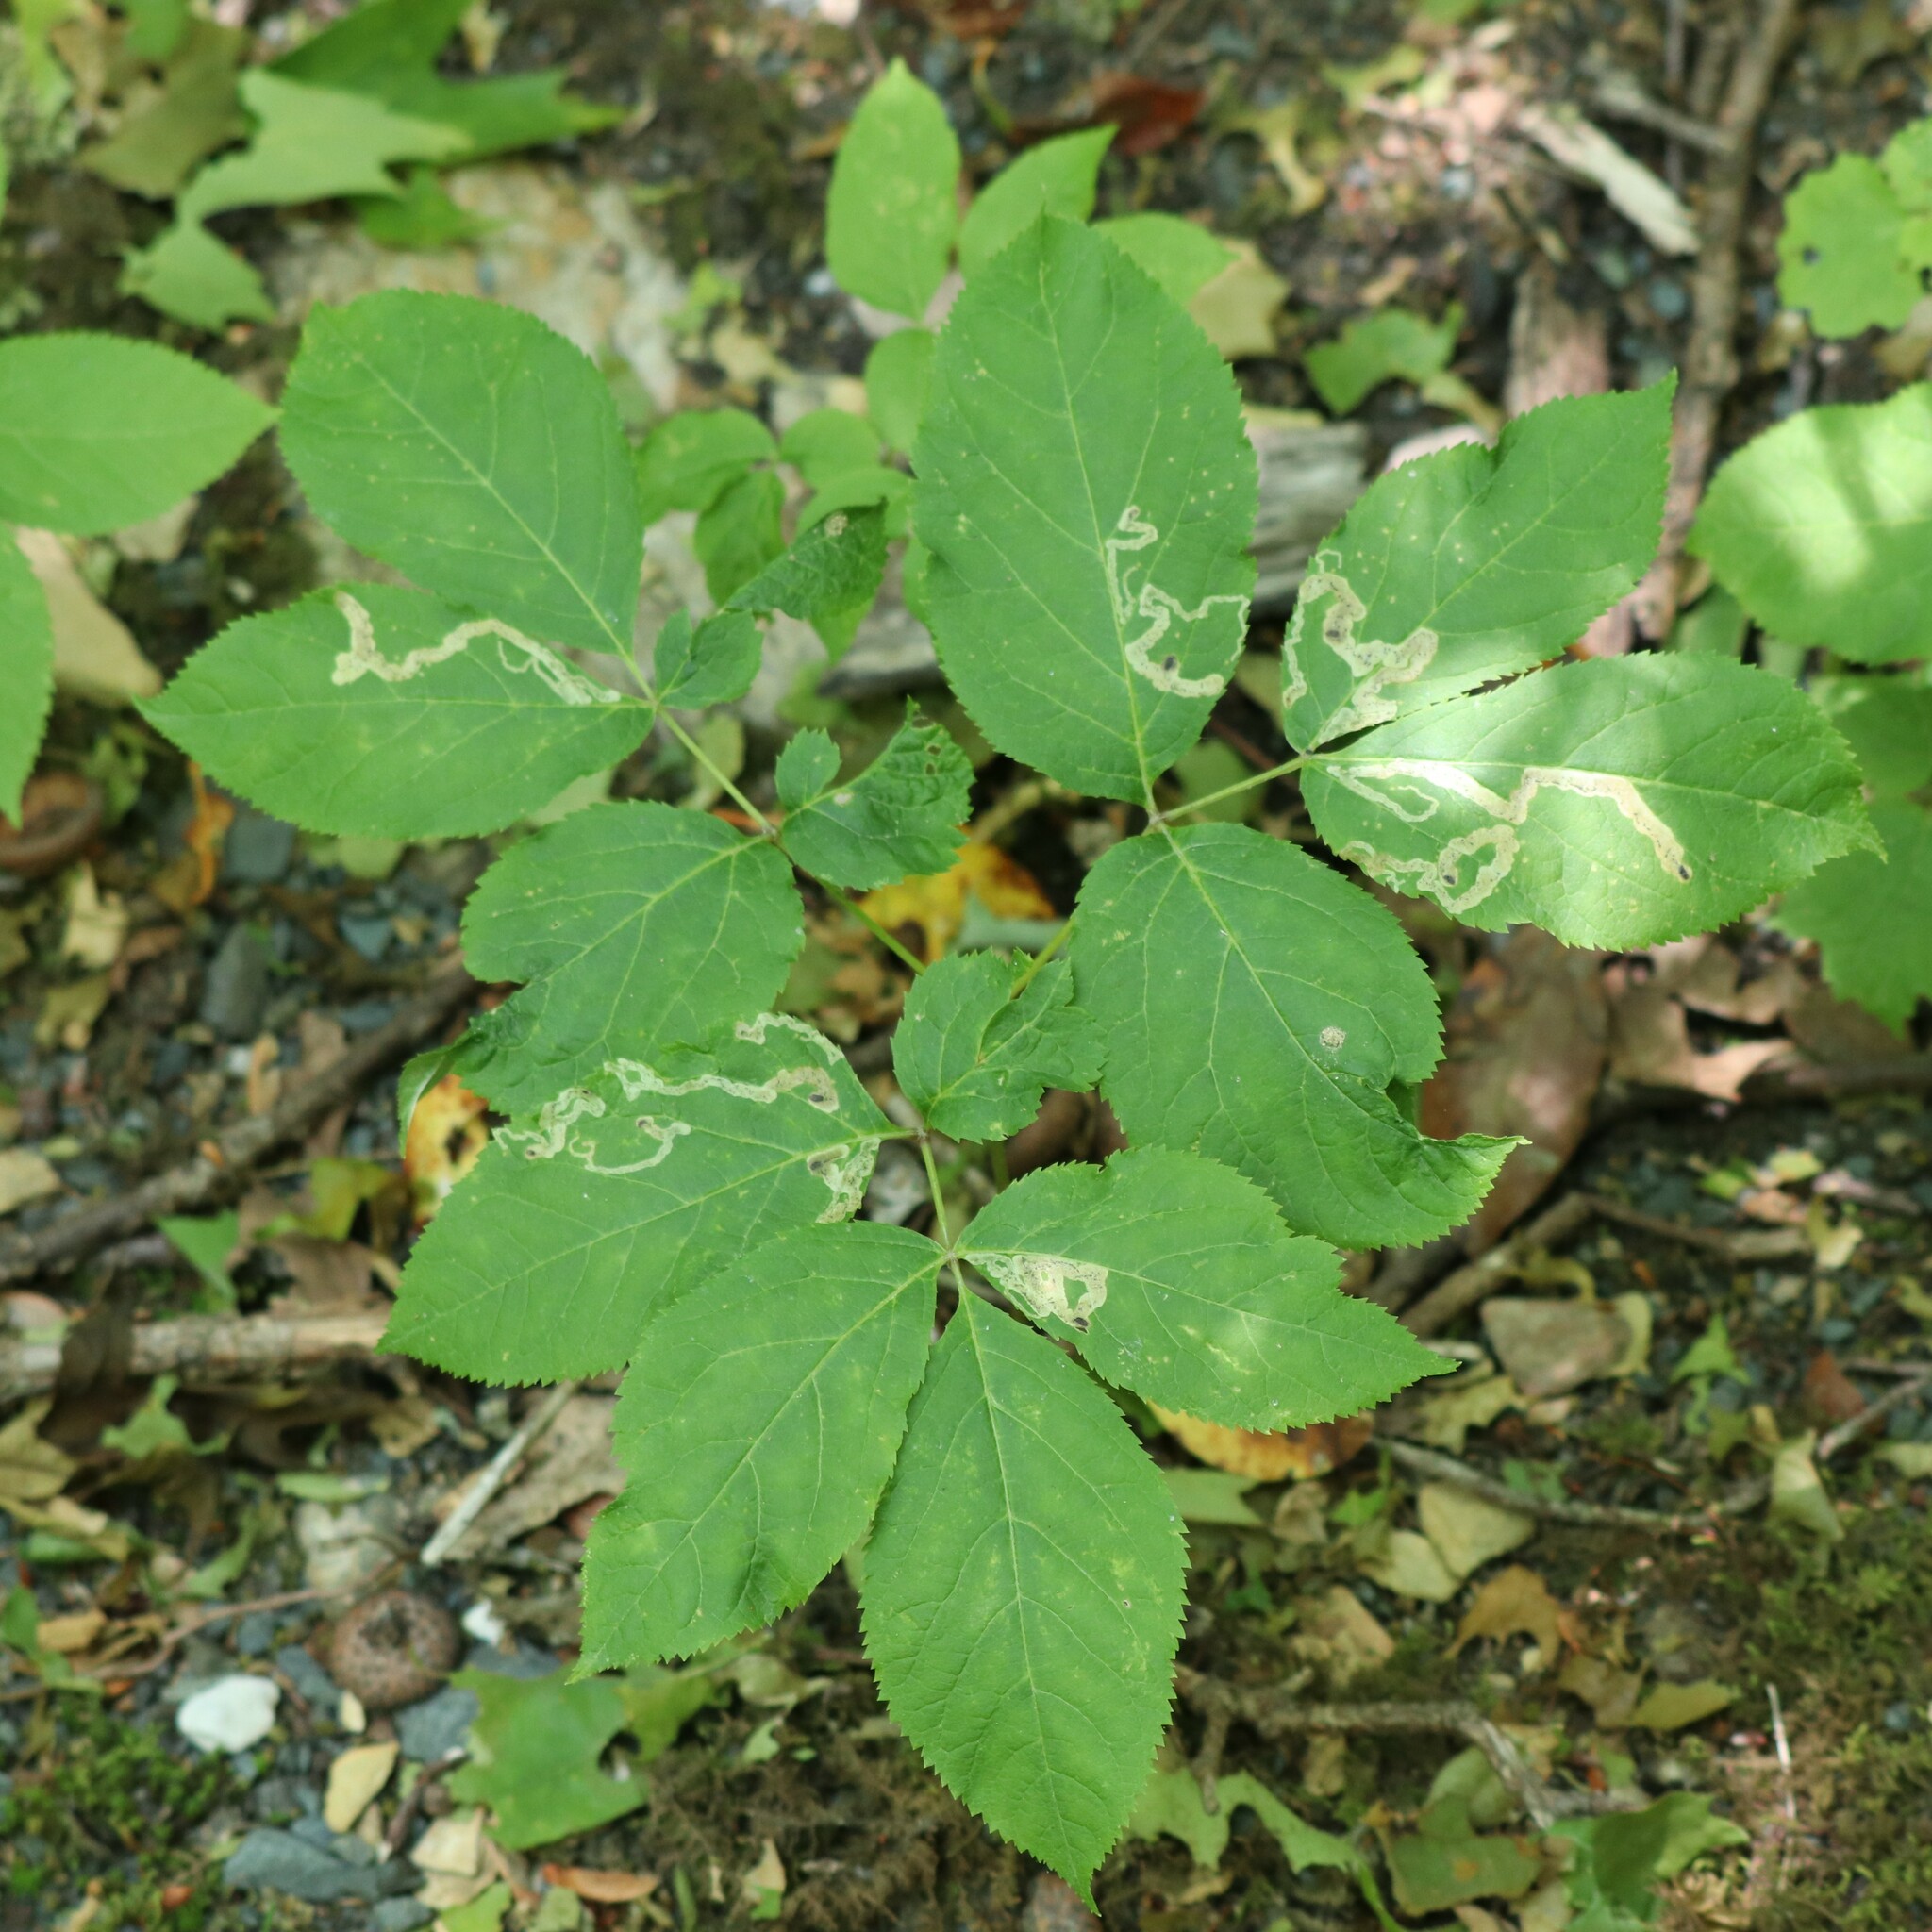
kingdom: Animalia
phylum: Arthropoda
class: Insecta
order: Diptera
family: Agromyzidae
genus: Phytomyza
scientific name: Phytomyza aralivora
